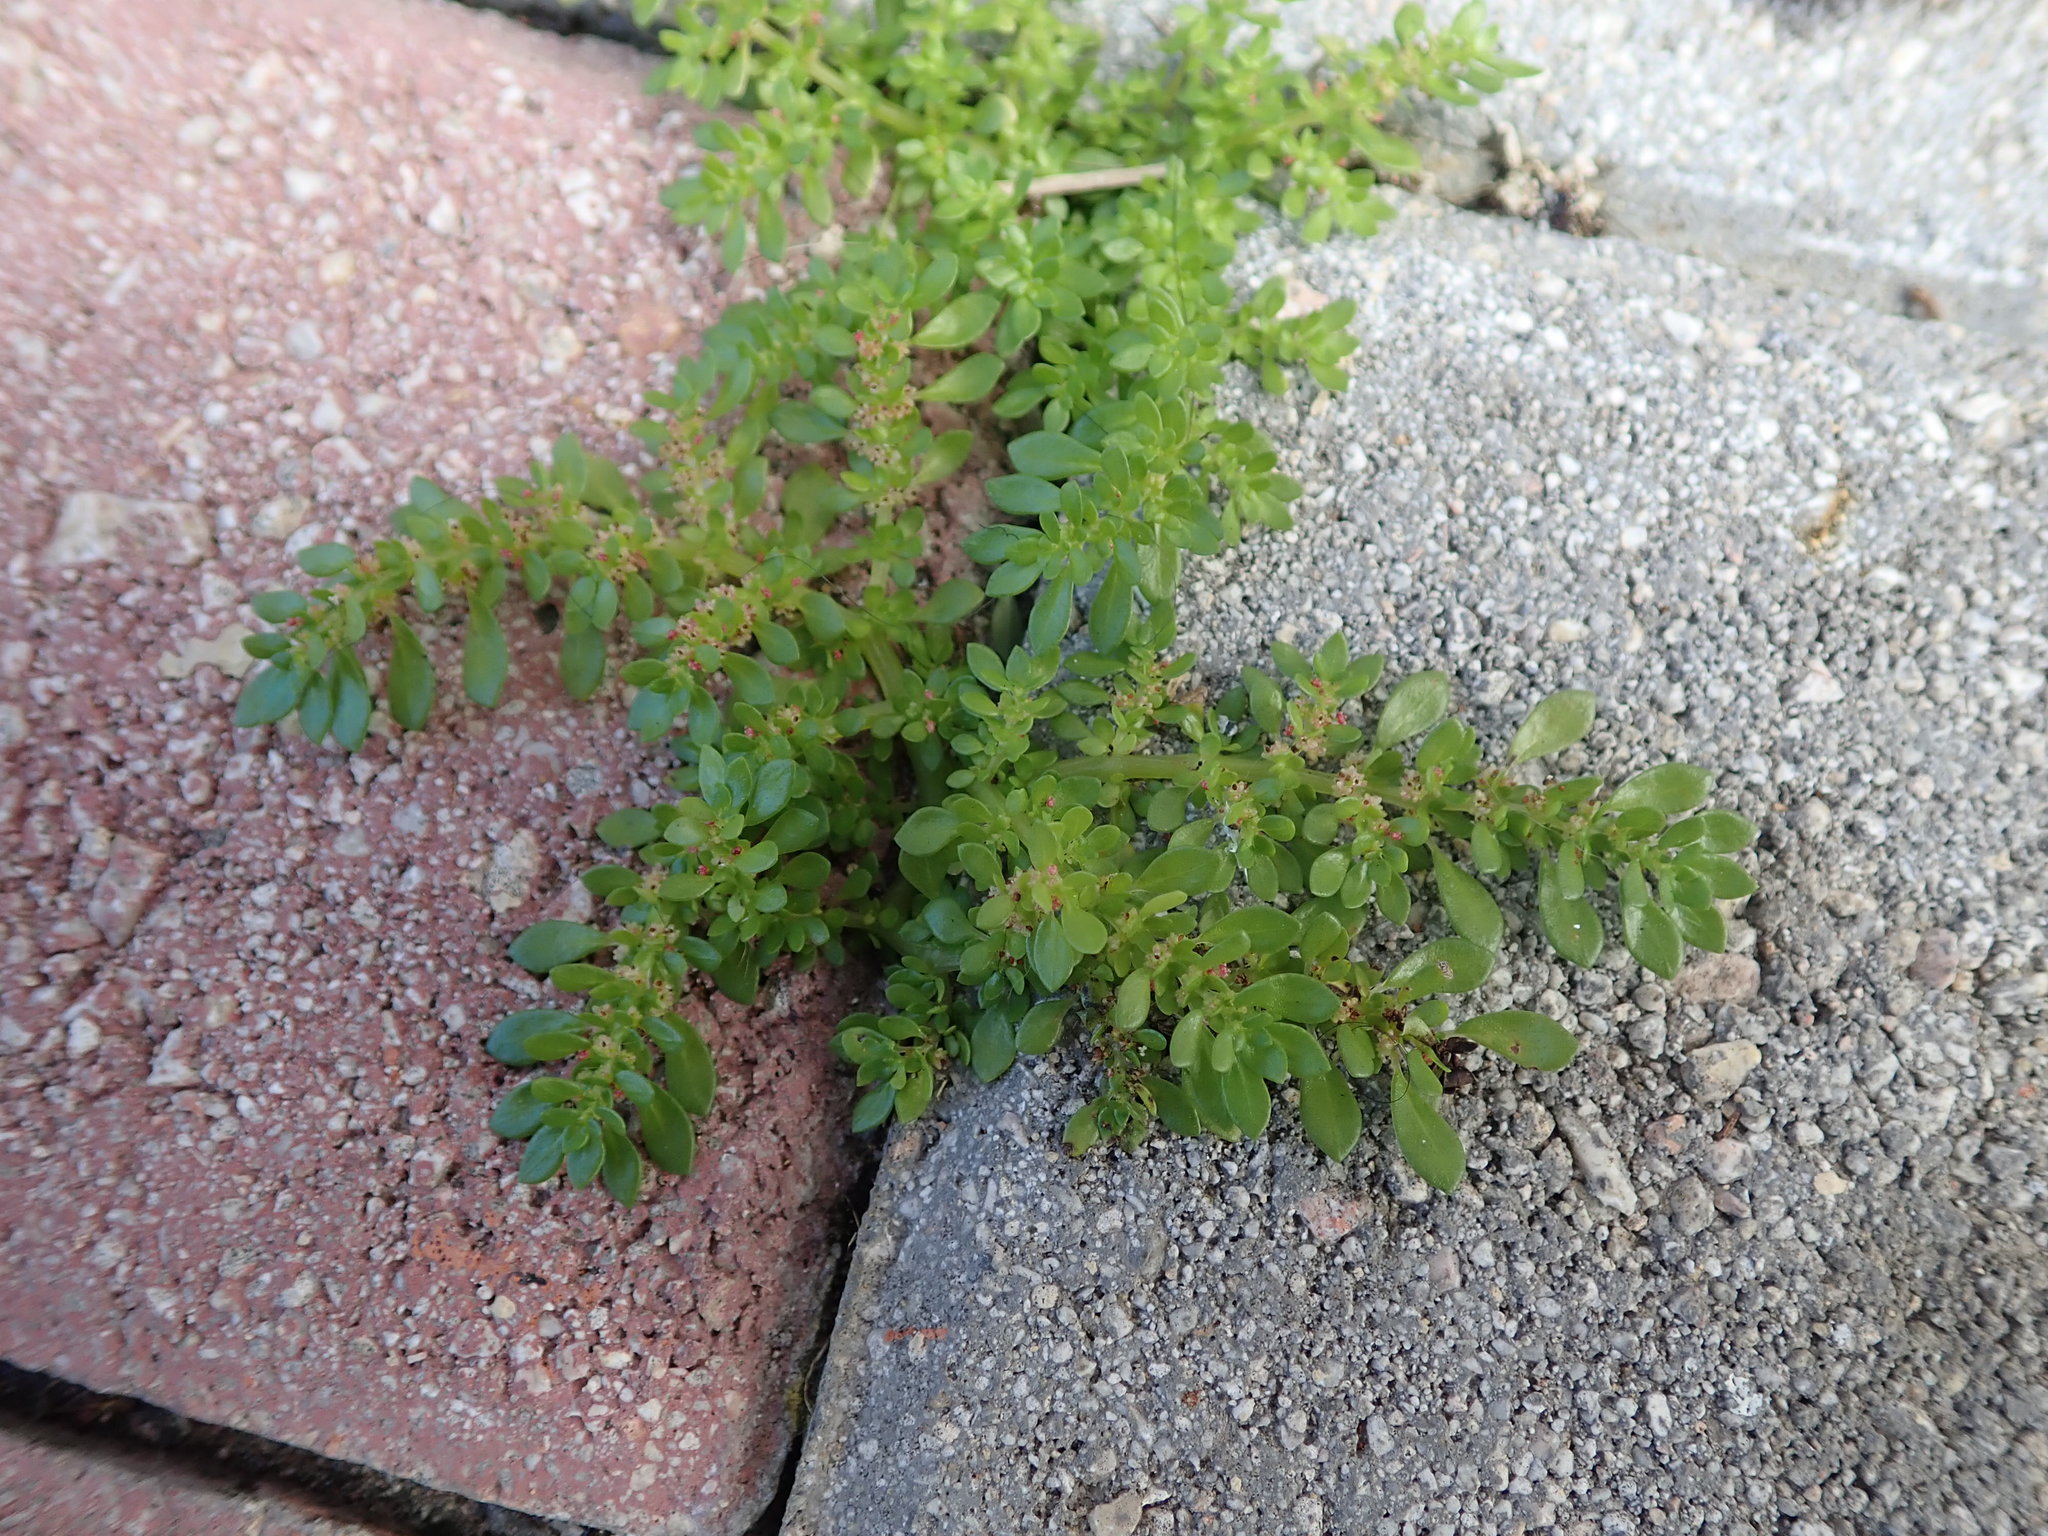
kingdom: Plantae
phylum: Tracheophyta
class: Magnoliopsida
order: Rosales
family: Urticaceae
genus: Pilea
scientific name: Pilea microphylla
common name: Artillery-plant
